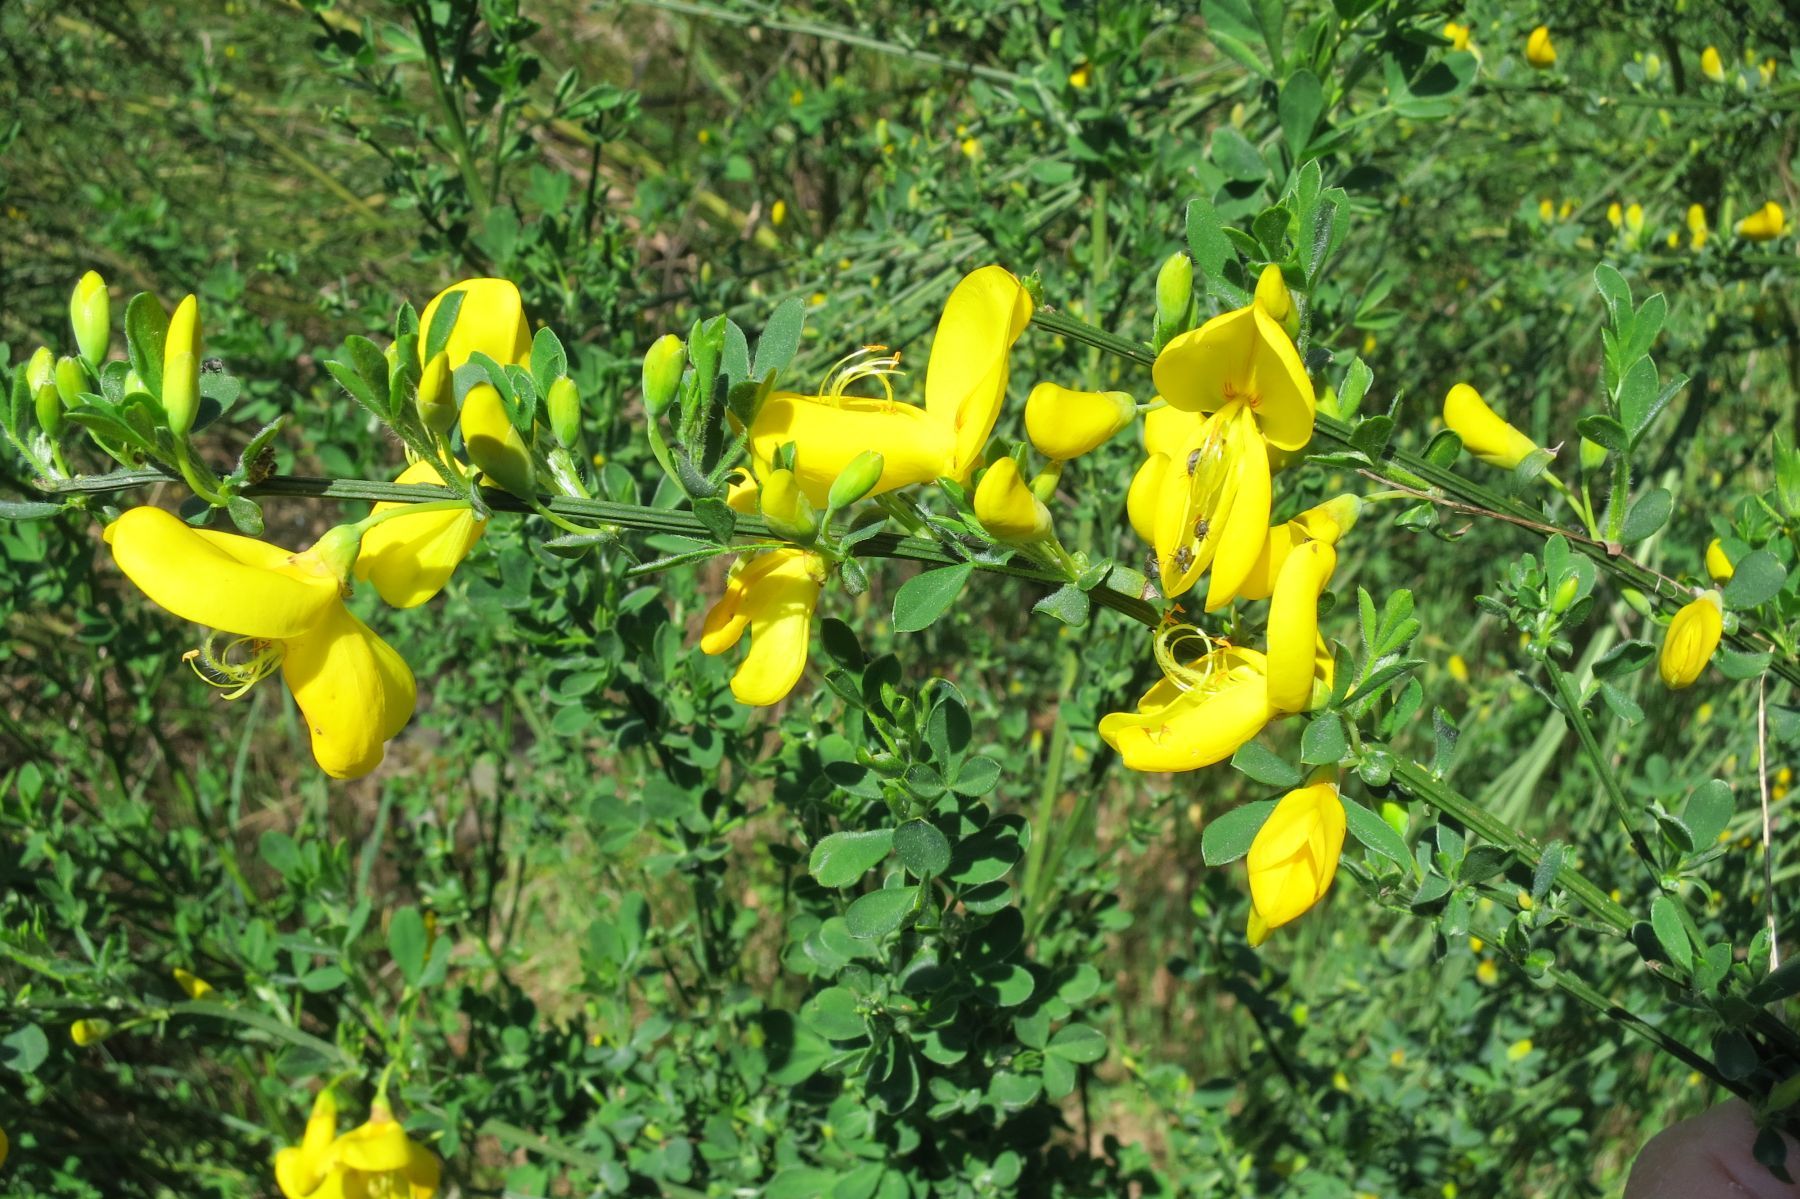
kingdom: Plantae
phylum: Tracheophyta
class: Magnoliopsida
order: Fabales
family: Fabaceae
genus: Cytisus
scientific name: Cytisus scoparius
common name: Scotch broom
